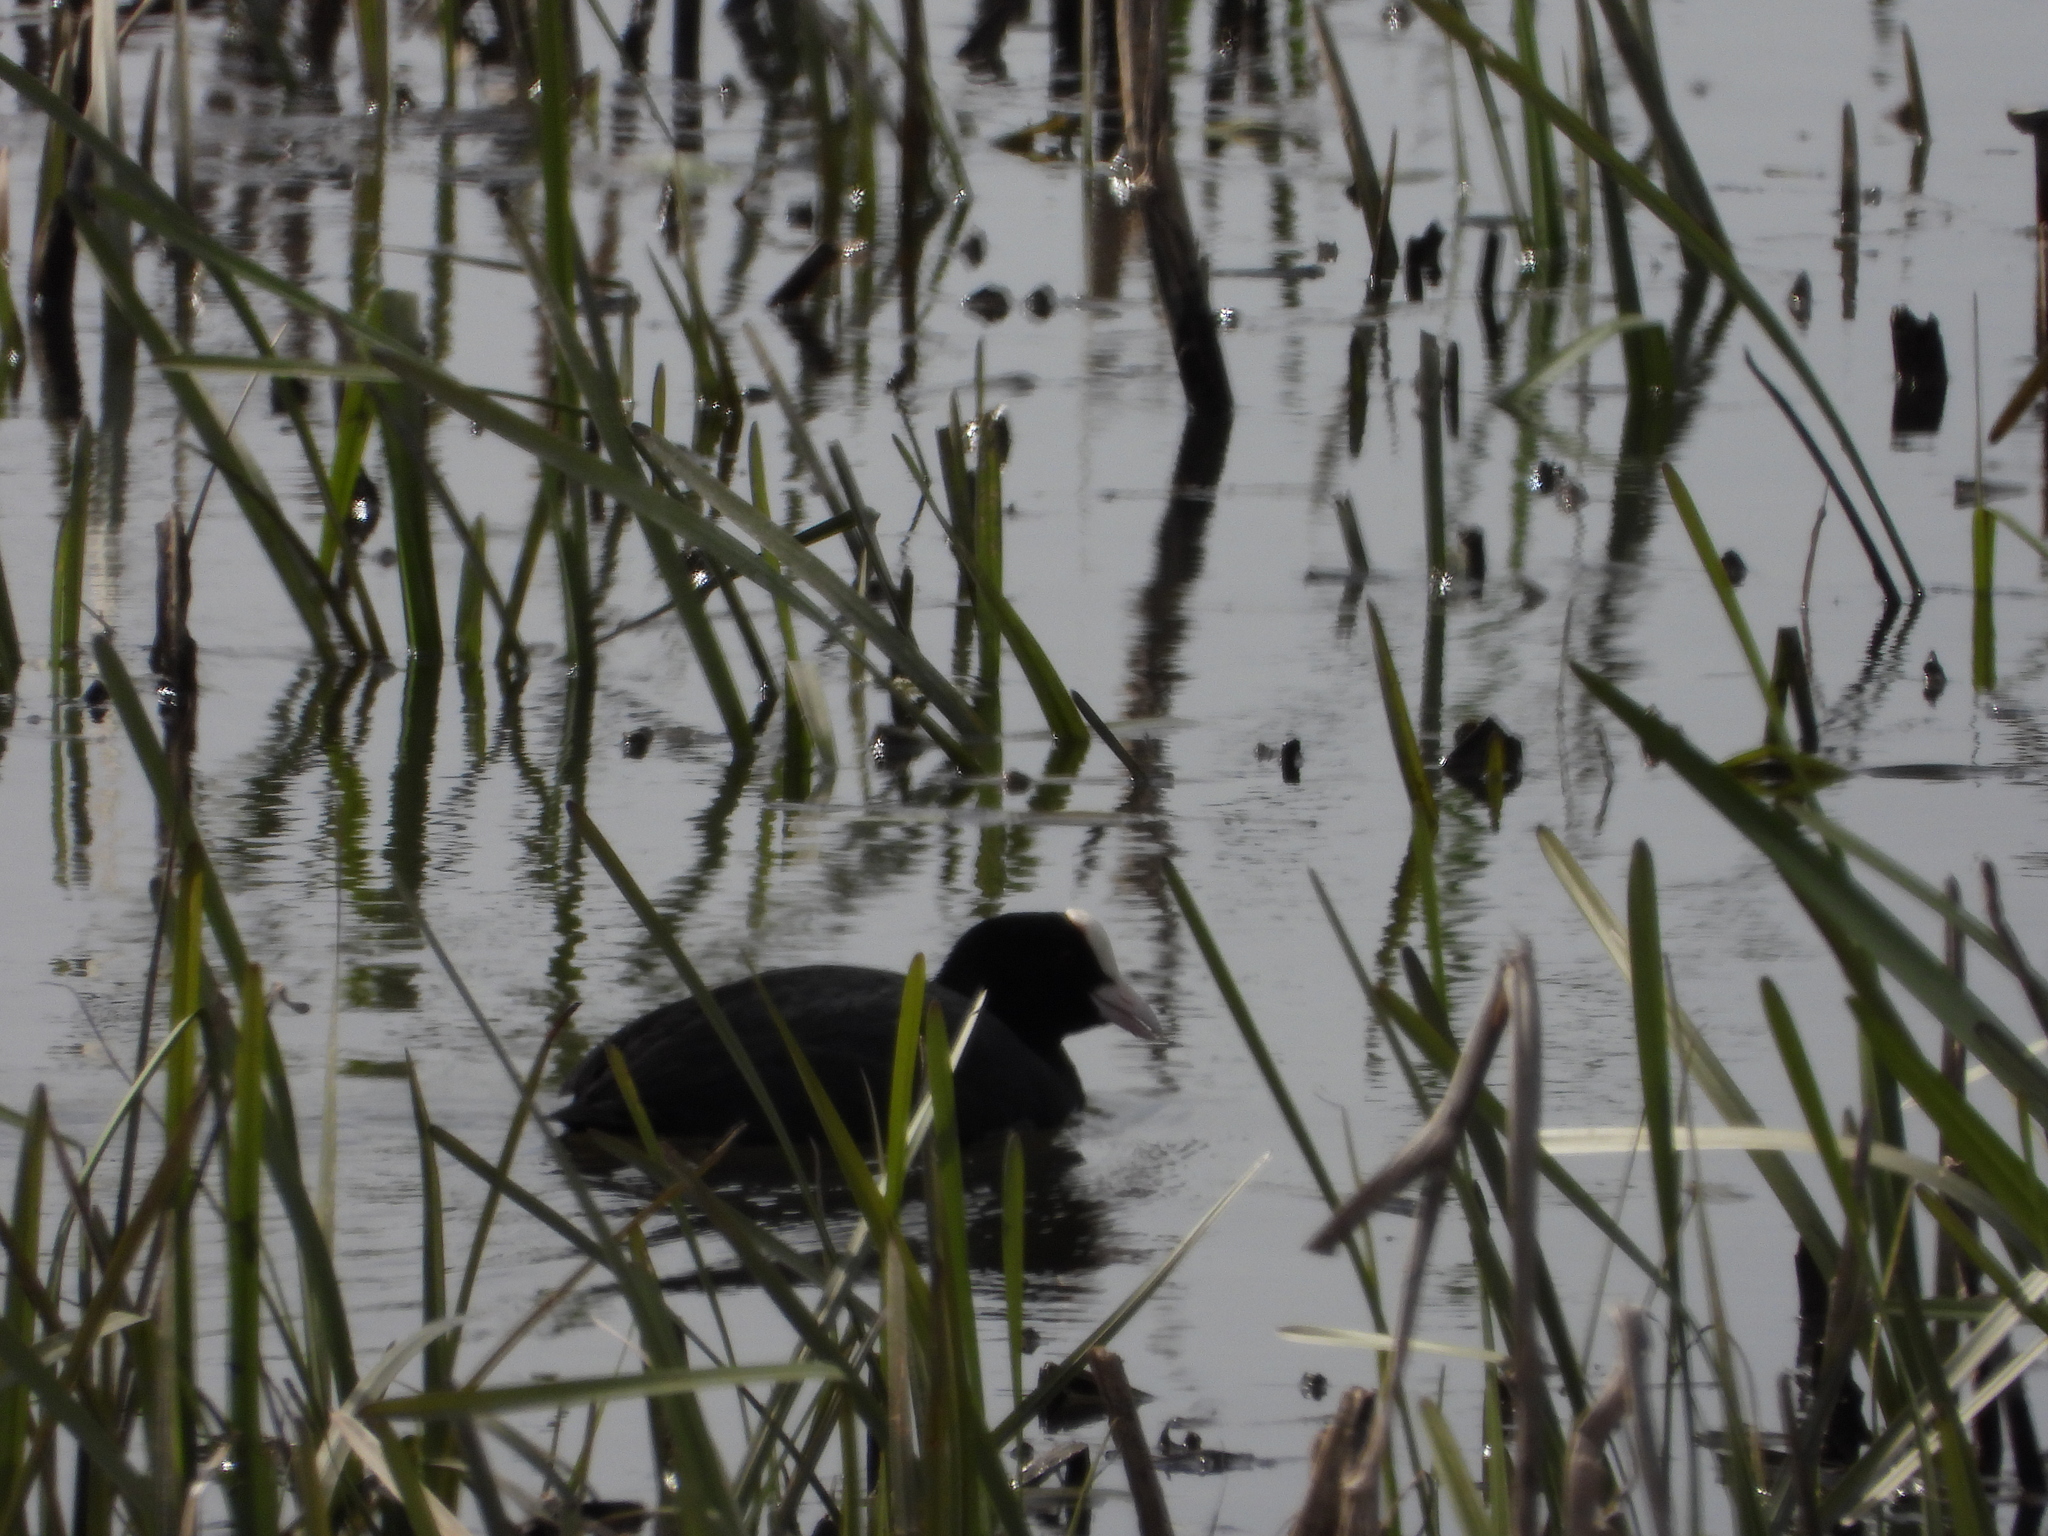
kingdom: Animalia
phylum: Chordata
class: Aves
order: Gruiformes
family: Rallidae
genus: Fulica
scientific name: Fulica atra
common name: Eurasian coot
